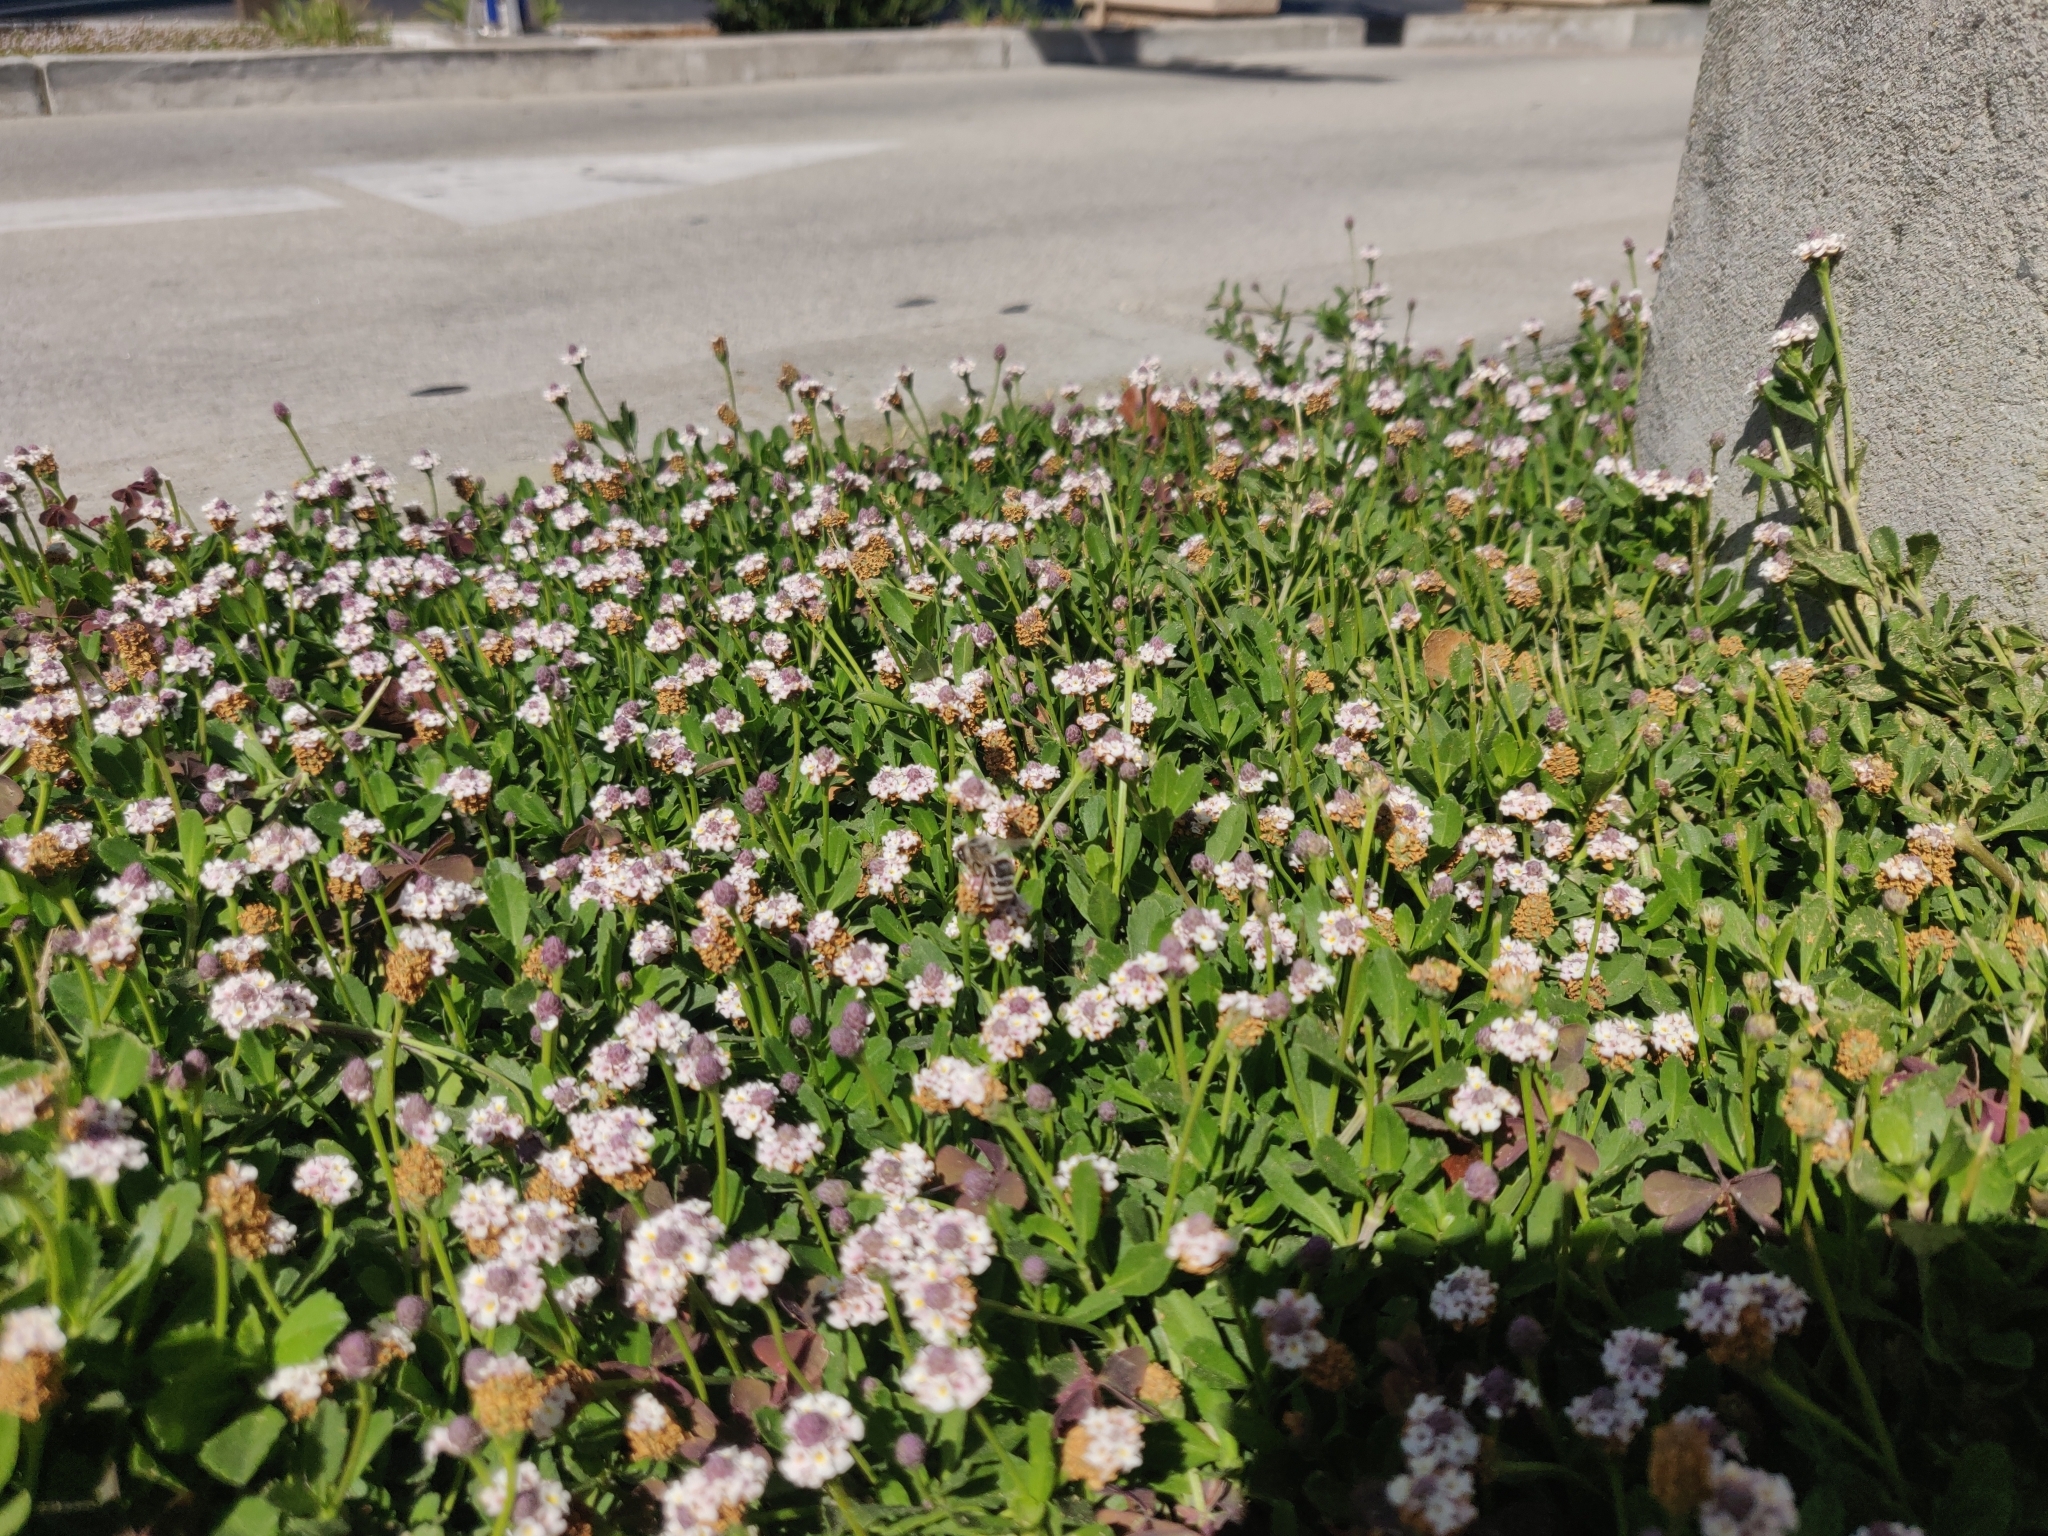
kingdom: Animalia
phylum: Arthropoda
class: Insecta
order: Hymenoptera
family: Apidae
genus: Apis
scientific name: Apis mellifera
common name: Honey bee
